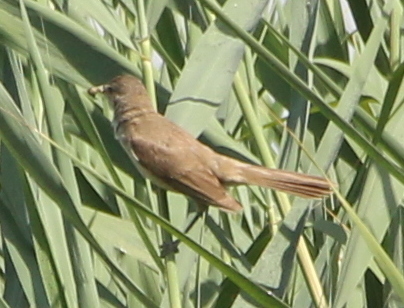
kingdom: Animalia
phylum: Chordata
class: Aves
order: Passeriformes
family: Acrocephalidae
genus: Acrocephalus
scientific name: Acrocephalus stentoreus
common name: Clamorous reed warbler
